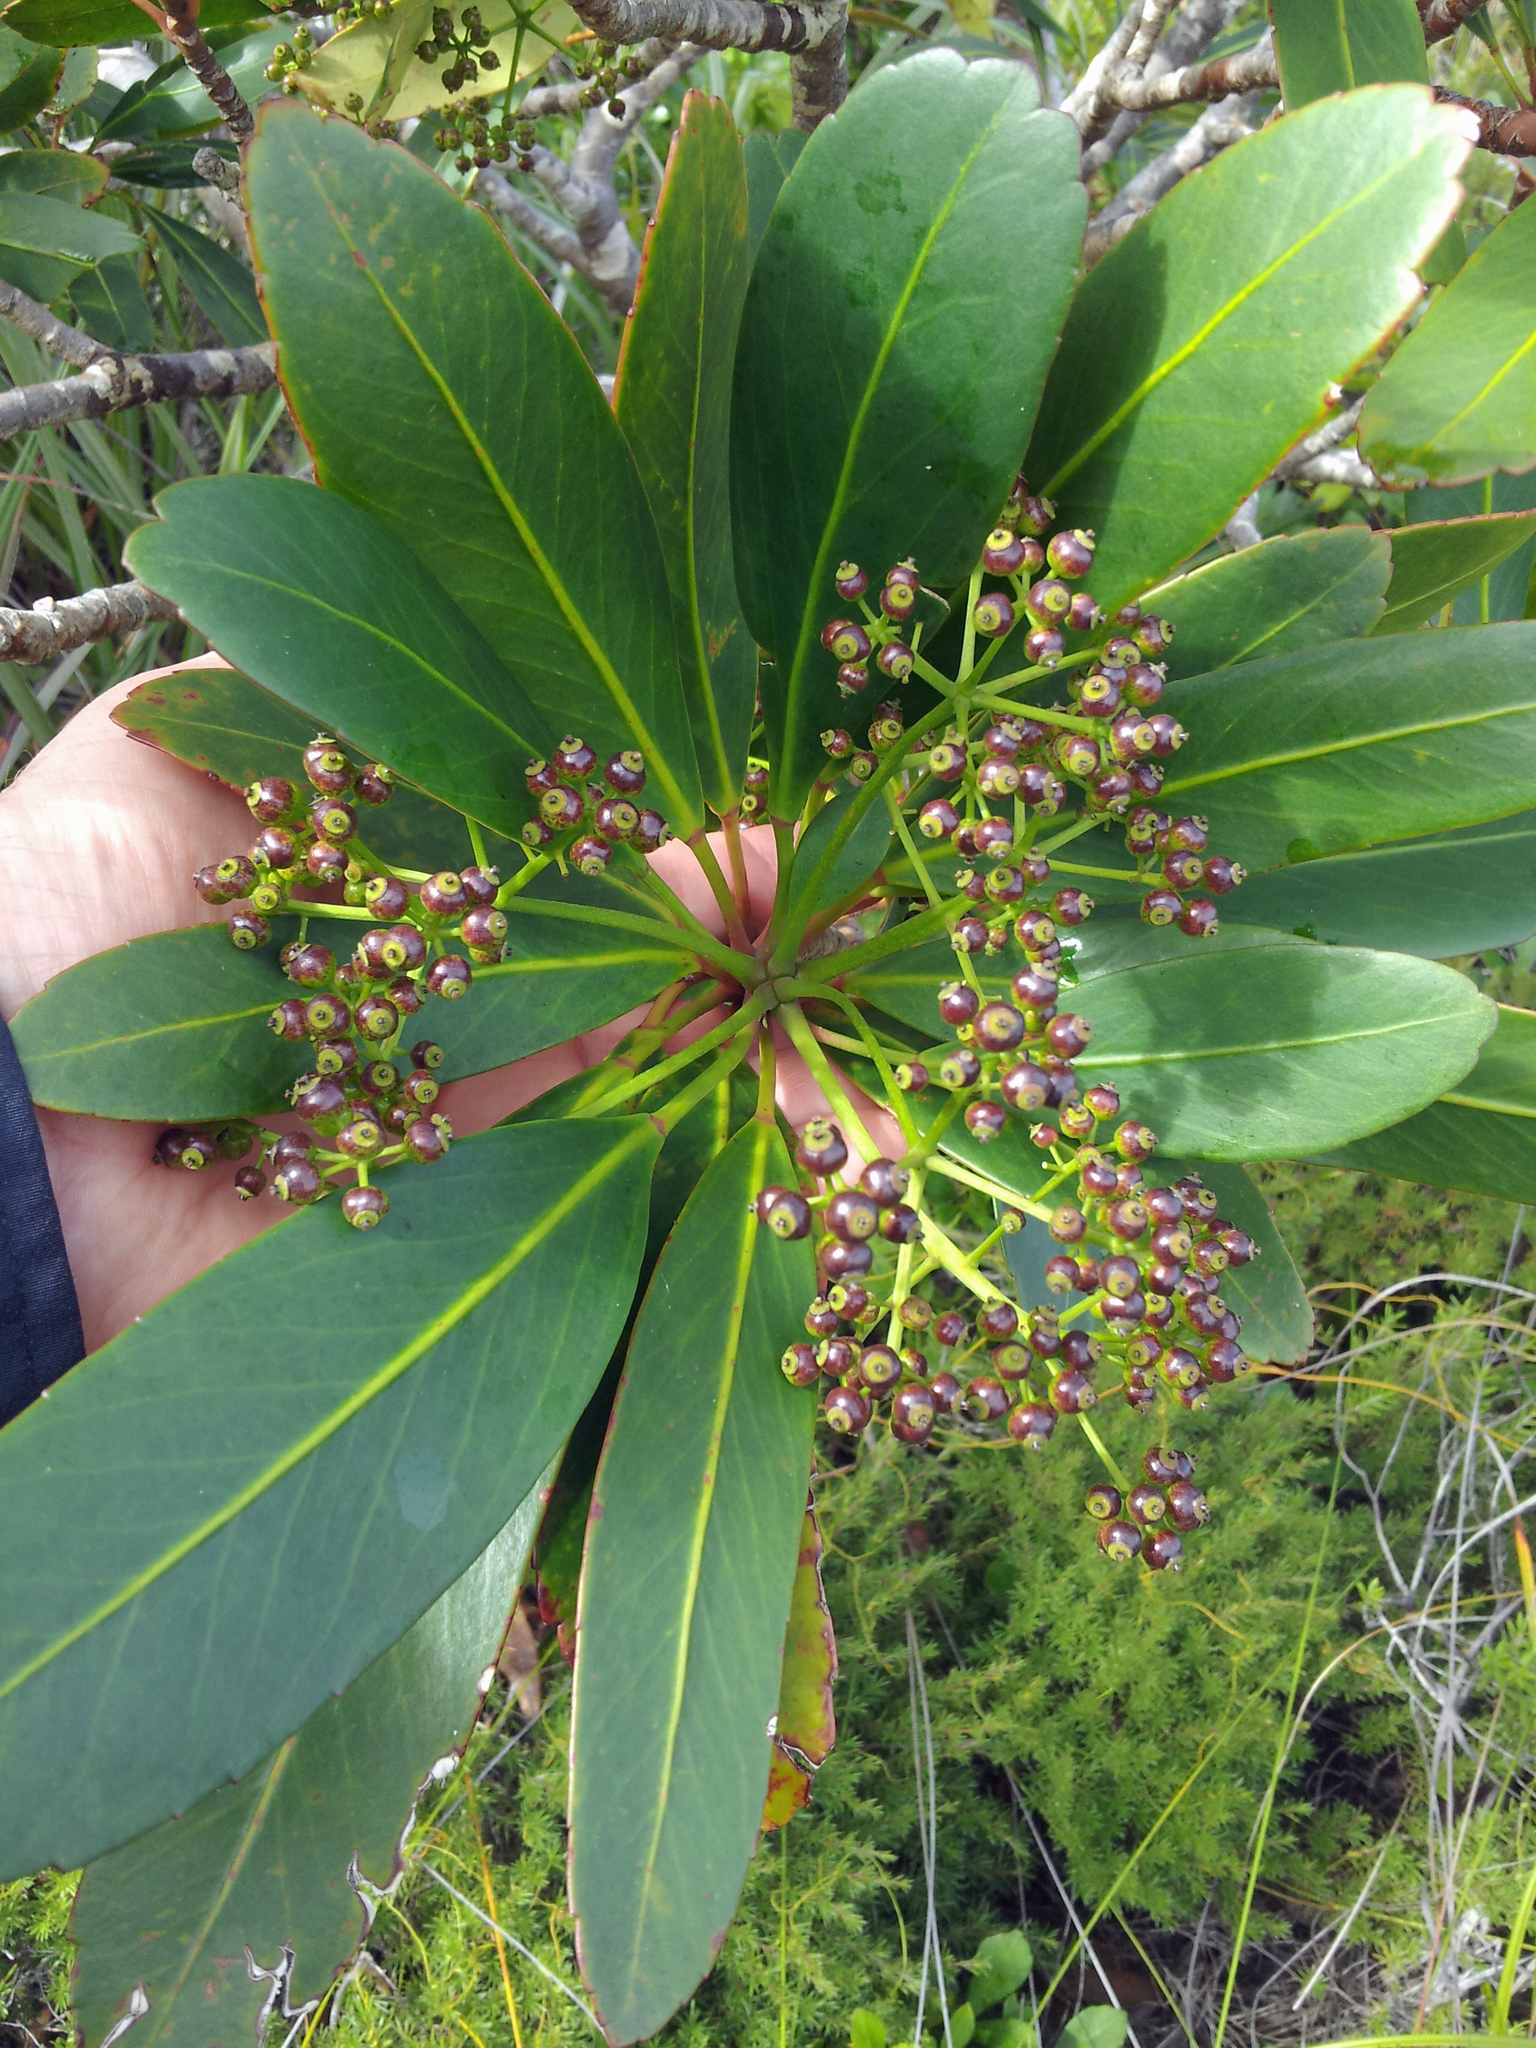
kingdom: Plantae
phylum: Tracheophyta
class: Magnoliopsida
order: Apiales
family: Araliaceae
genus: Pseudopanax
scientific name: Pseudopanax
